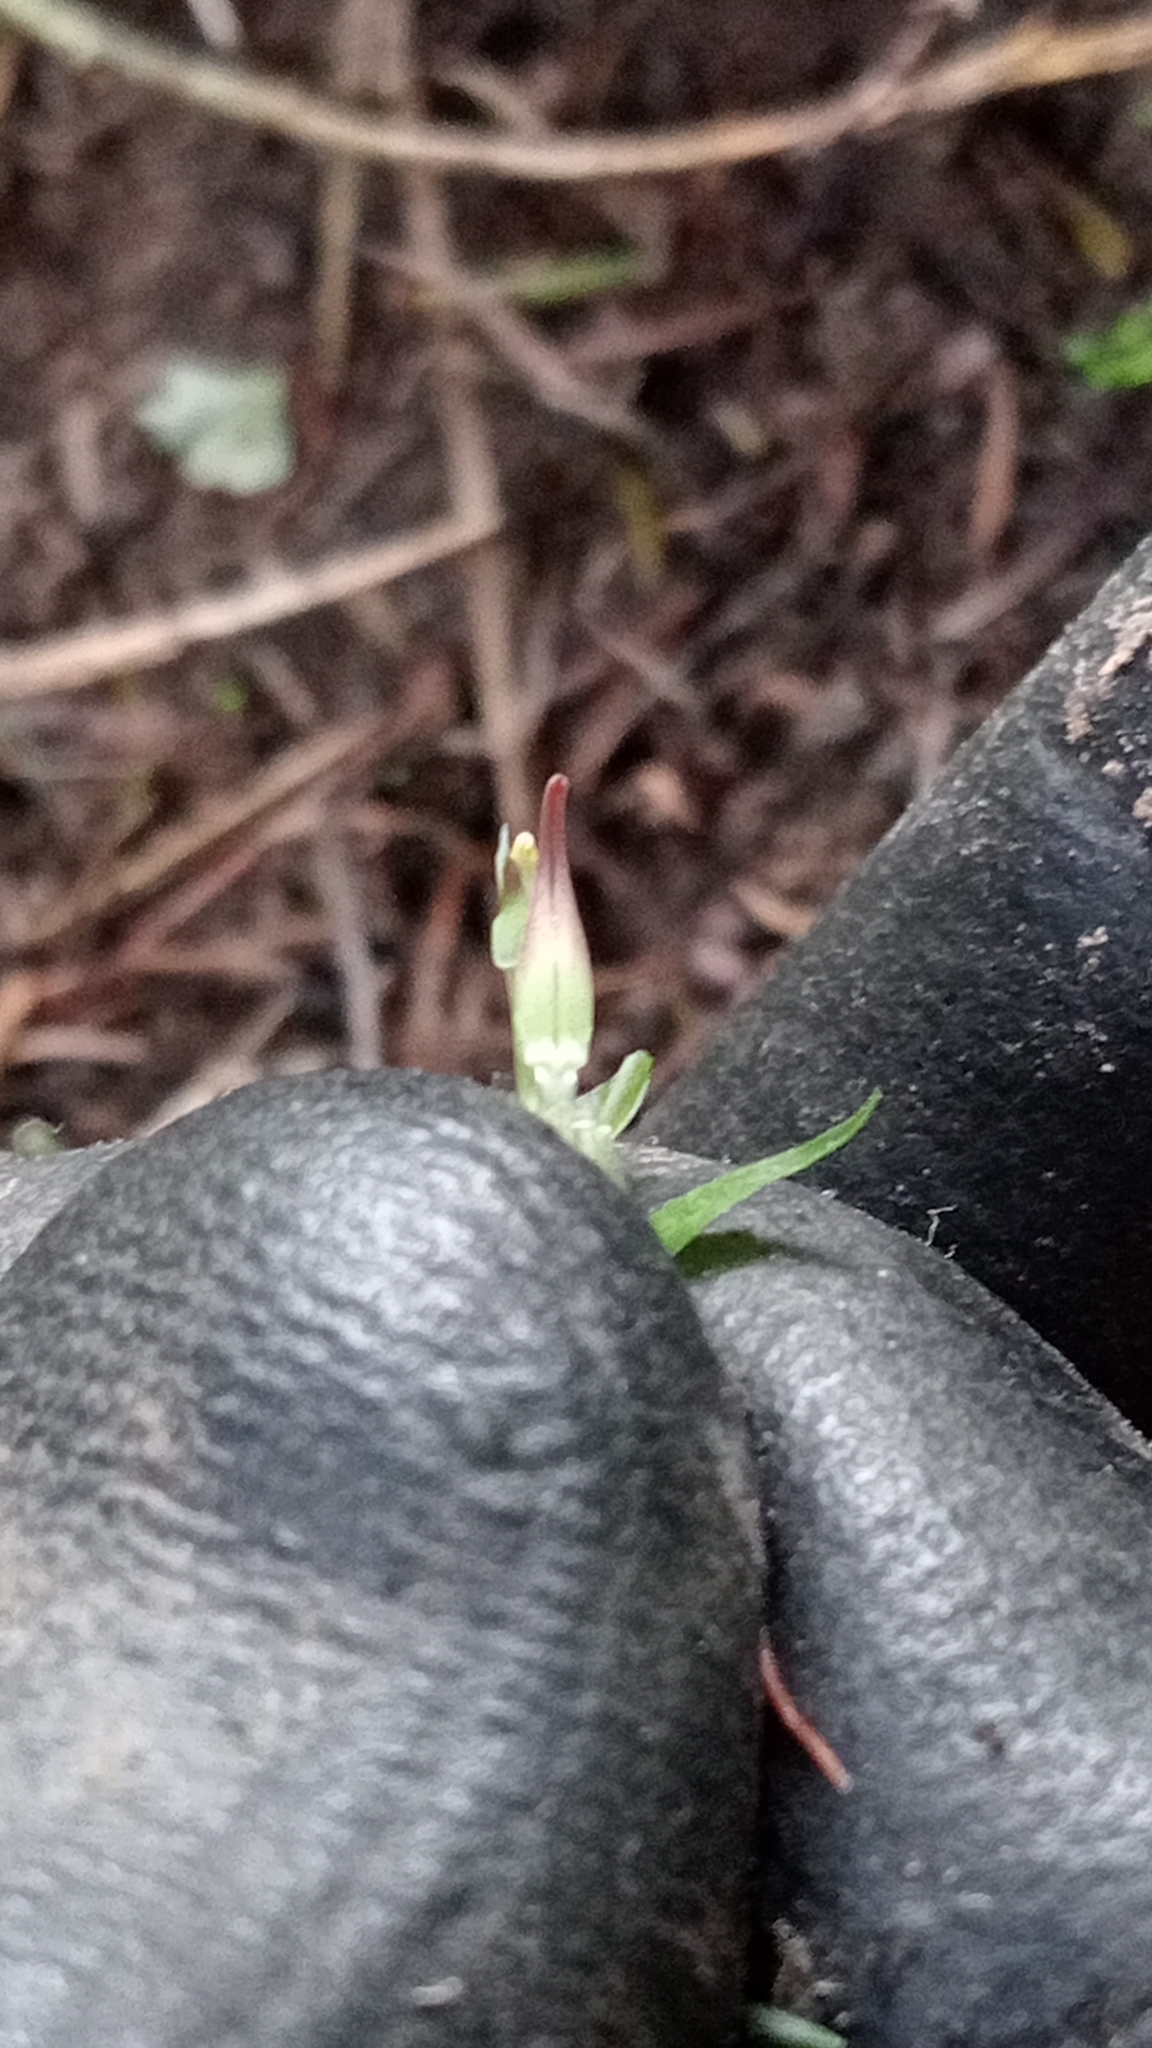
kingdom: Plantae
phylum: Tracheophyta
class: Liliopsida
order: Asparagales
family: Orchidaceae
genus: Pterostylis
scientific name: Pterostylis alobula
